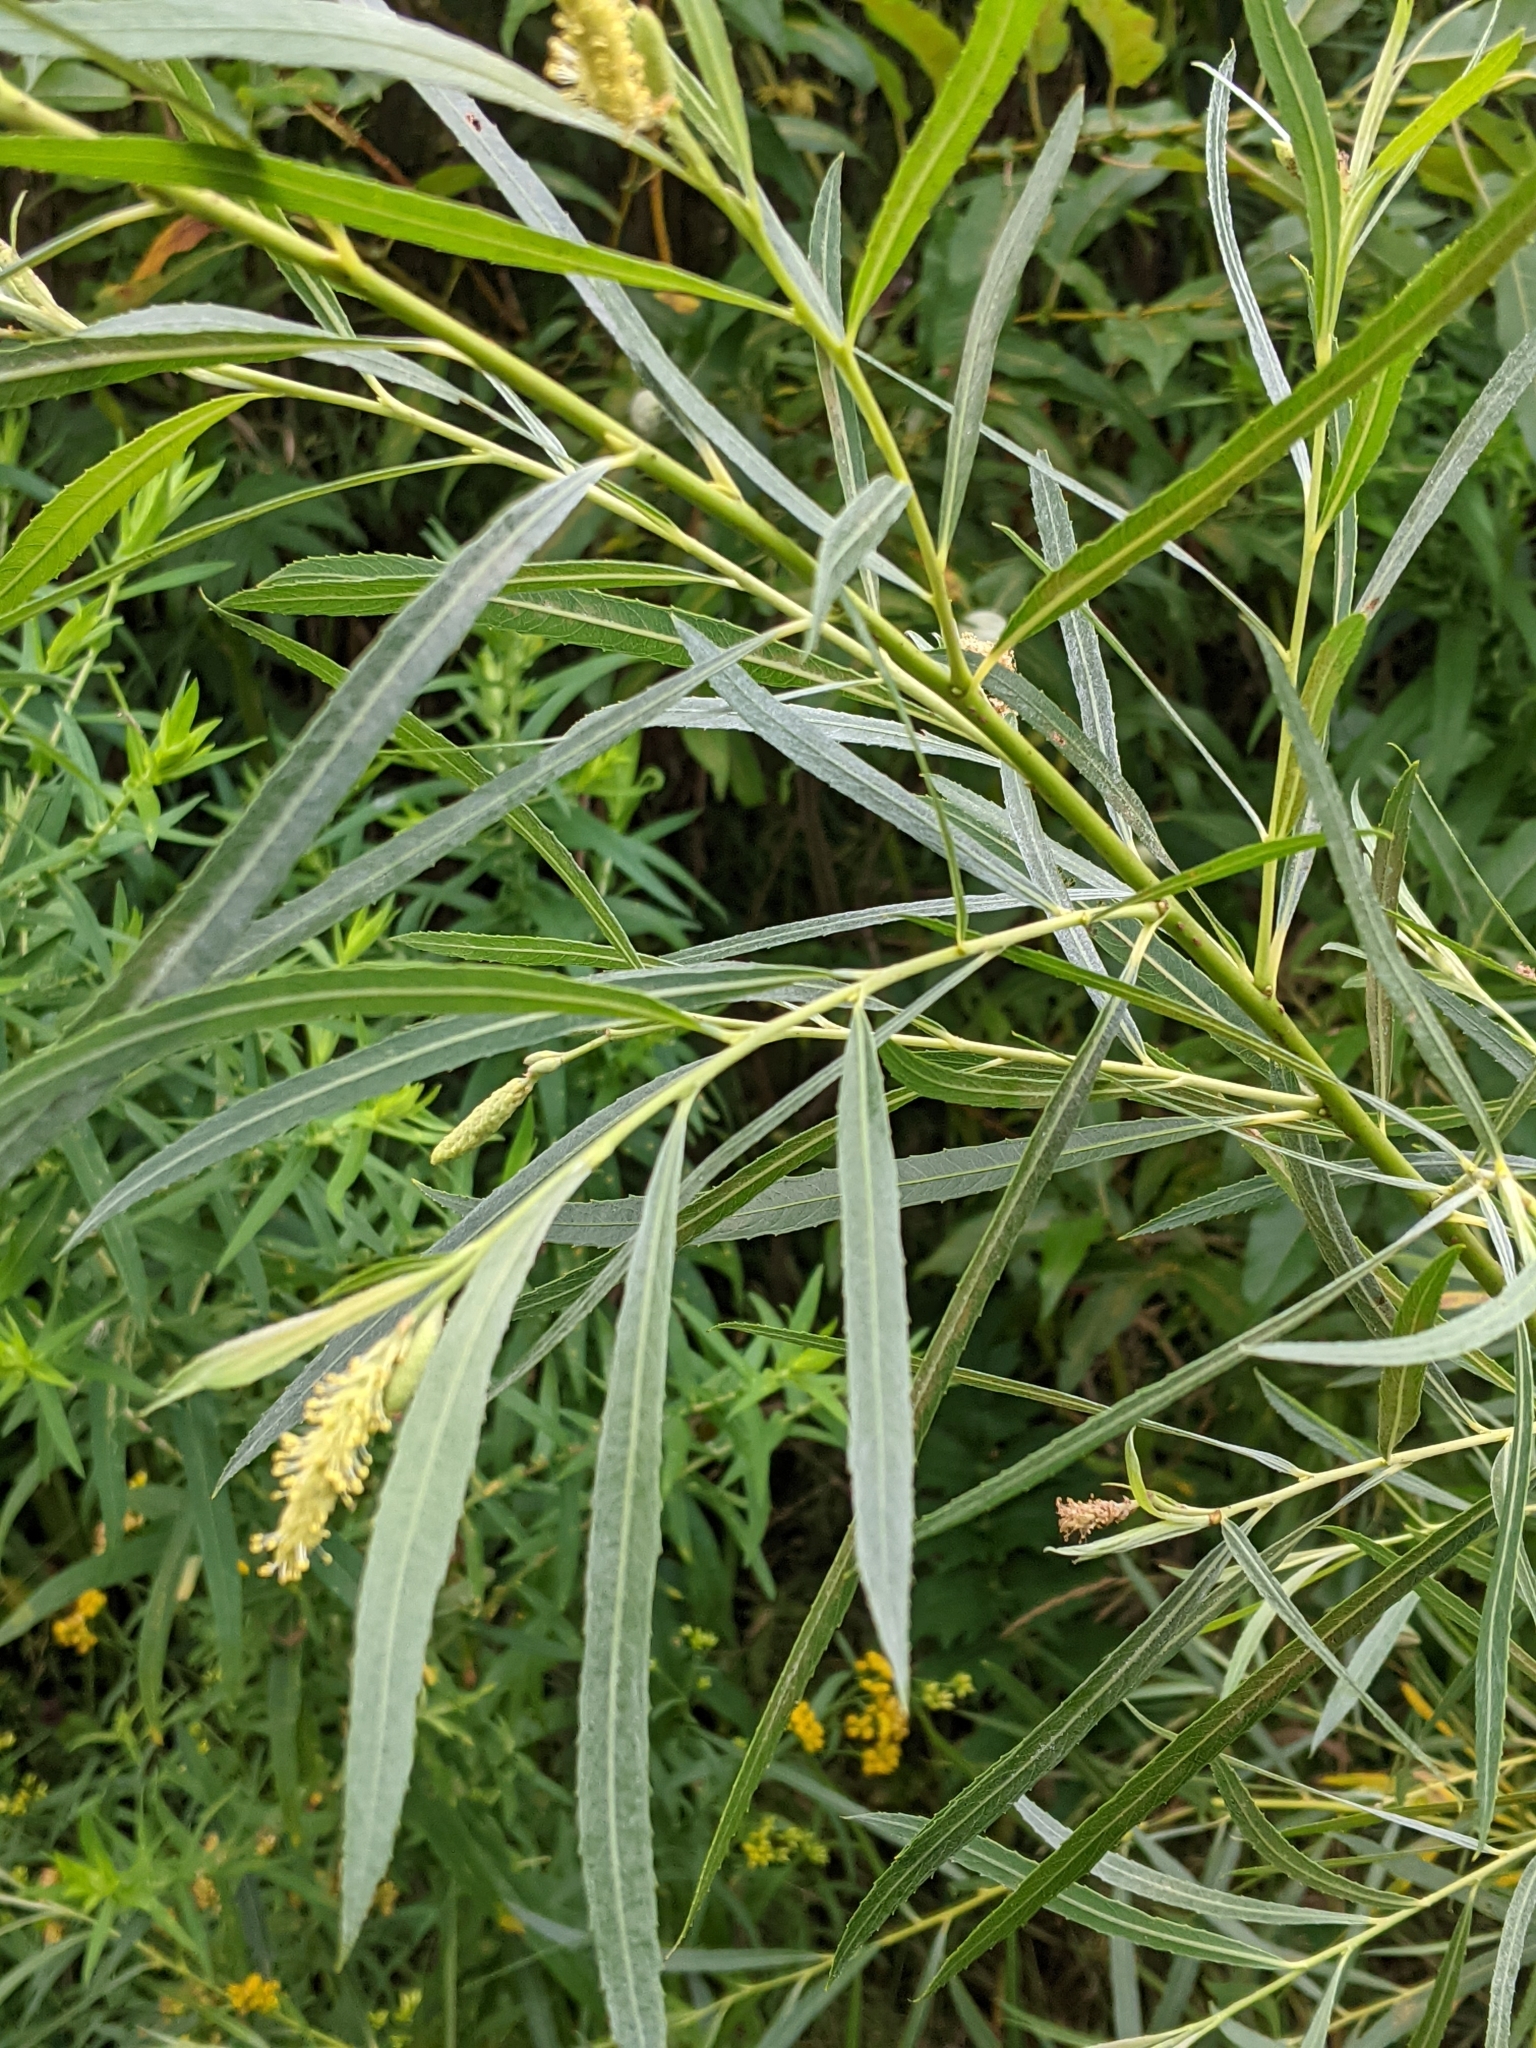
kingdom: Plantae
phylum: Tracheophyta
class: Magnoliopsida
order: Malpighiales
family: Salicaceae
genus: Salix
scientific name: Salix interior
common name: Sandbar willow
